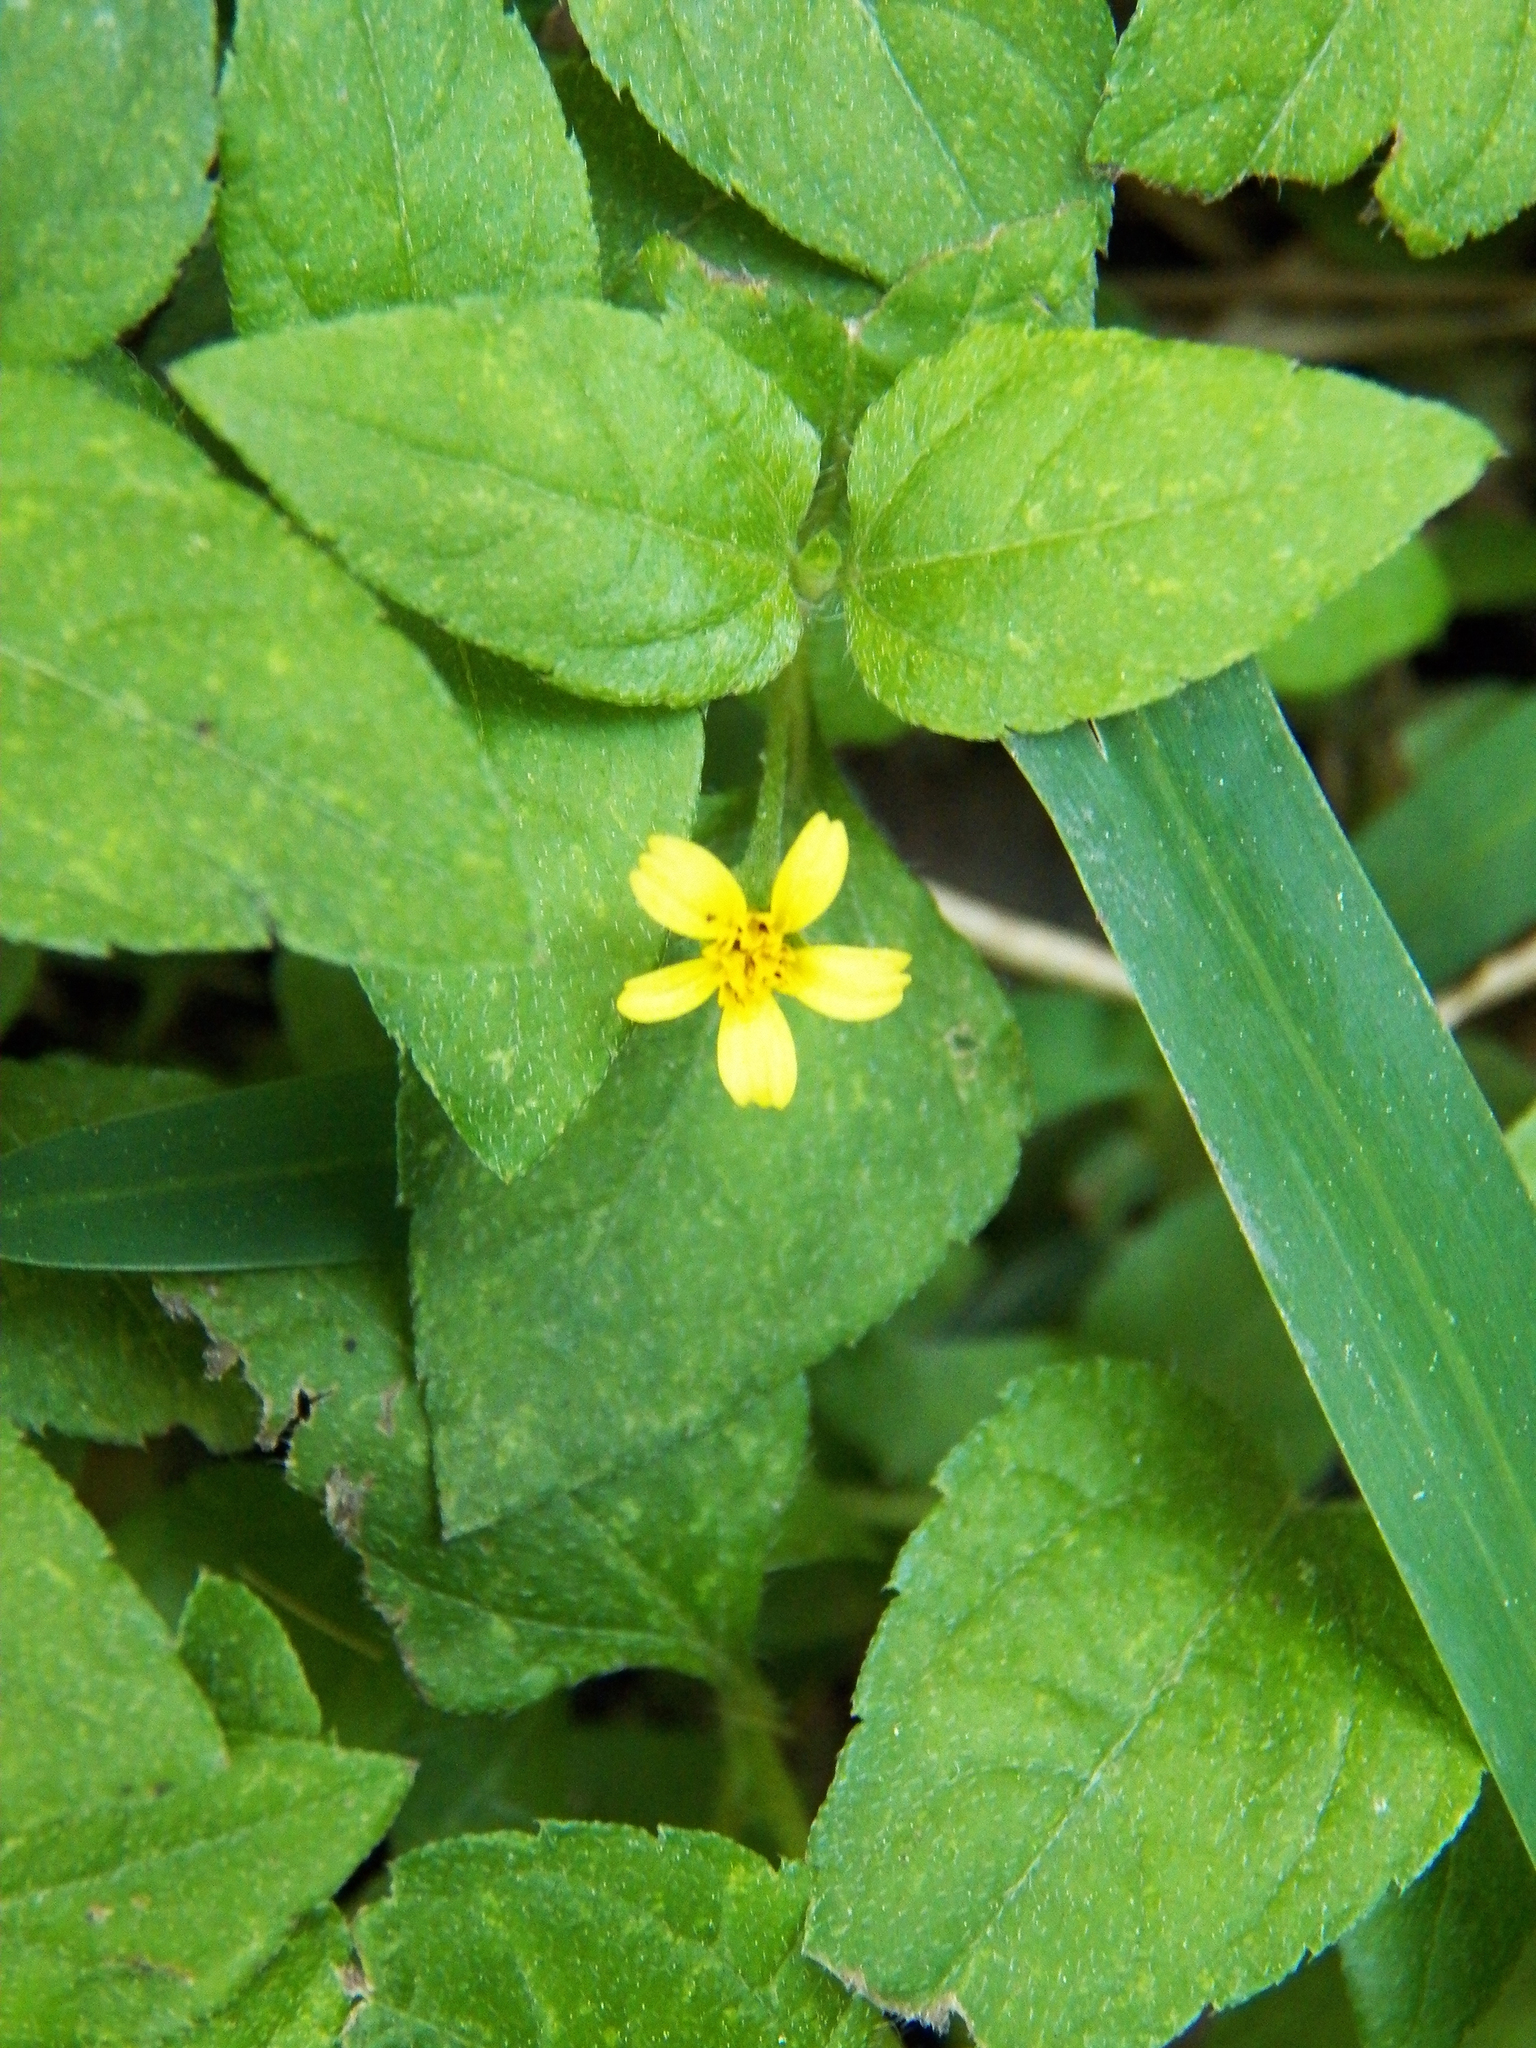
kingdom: Plantae
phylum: Tracheophyta
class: Magnoliopsida
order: Asterales
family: Asteraceae
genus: Calyptocarpus
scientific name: Calyptocarpus vialis
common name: Straggler daisy
